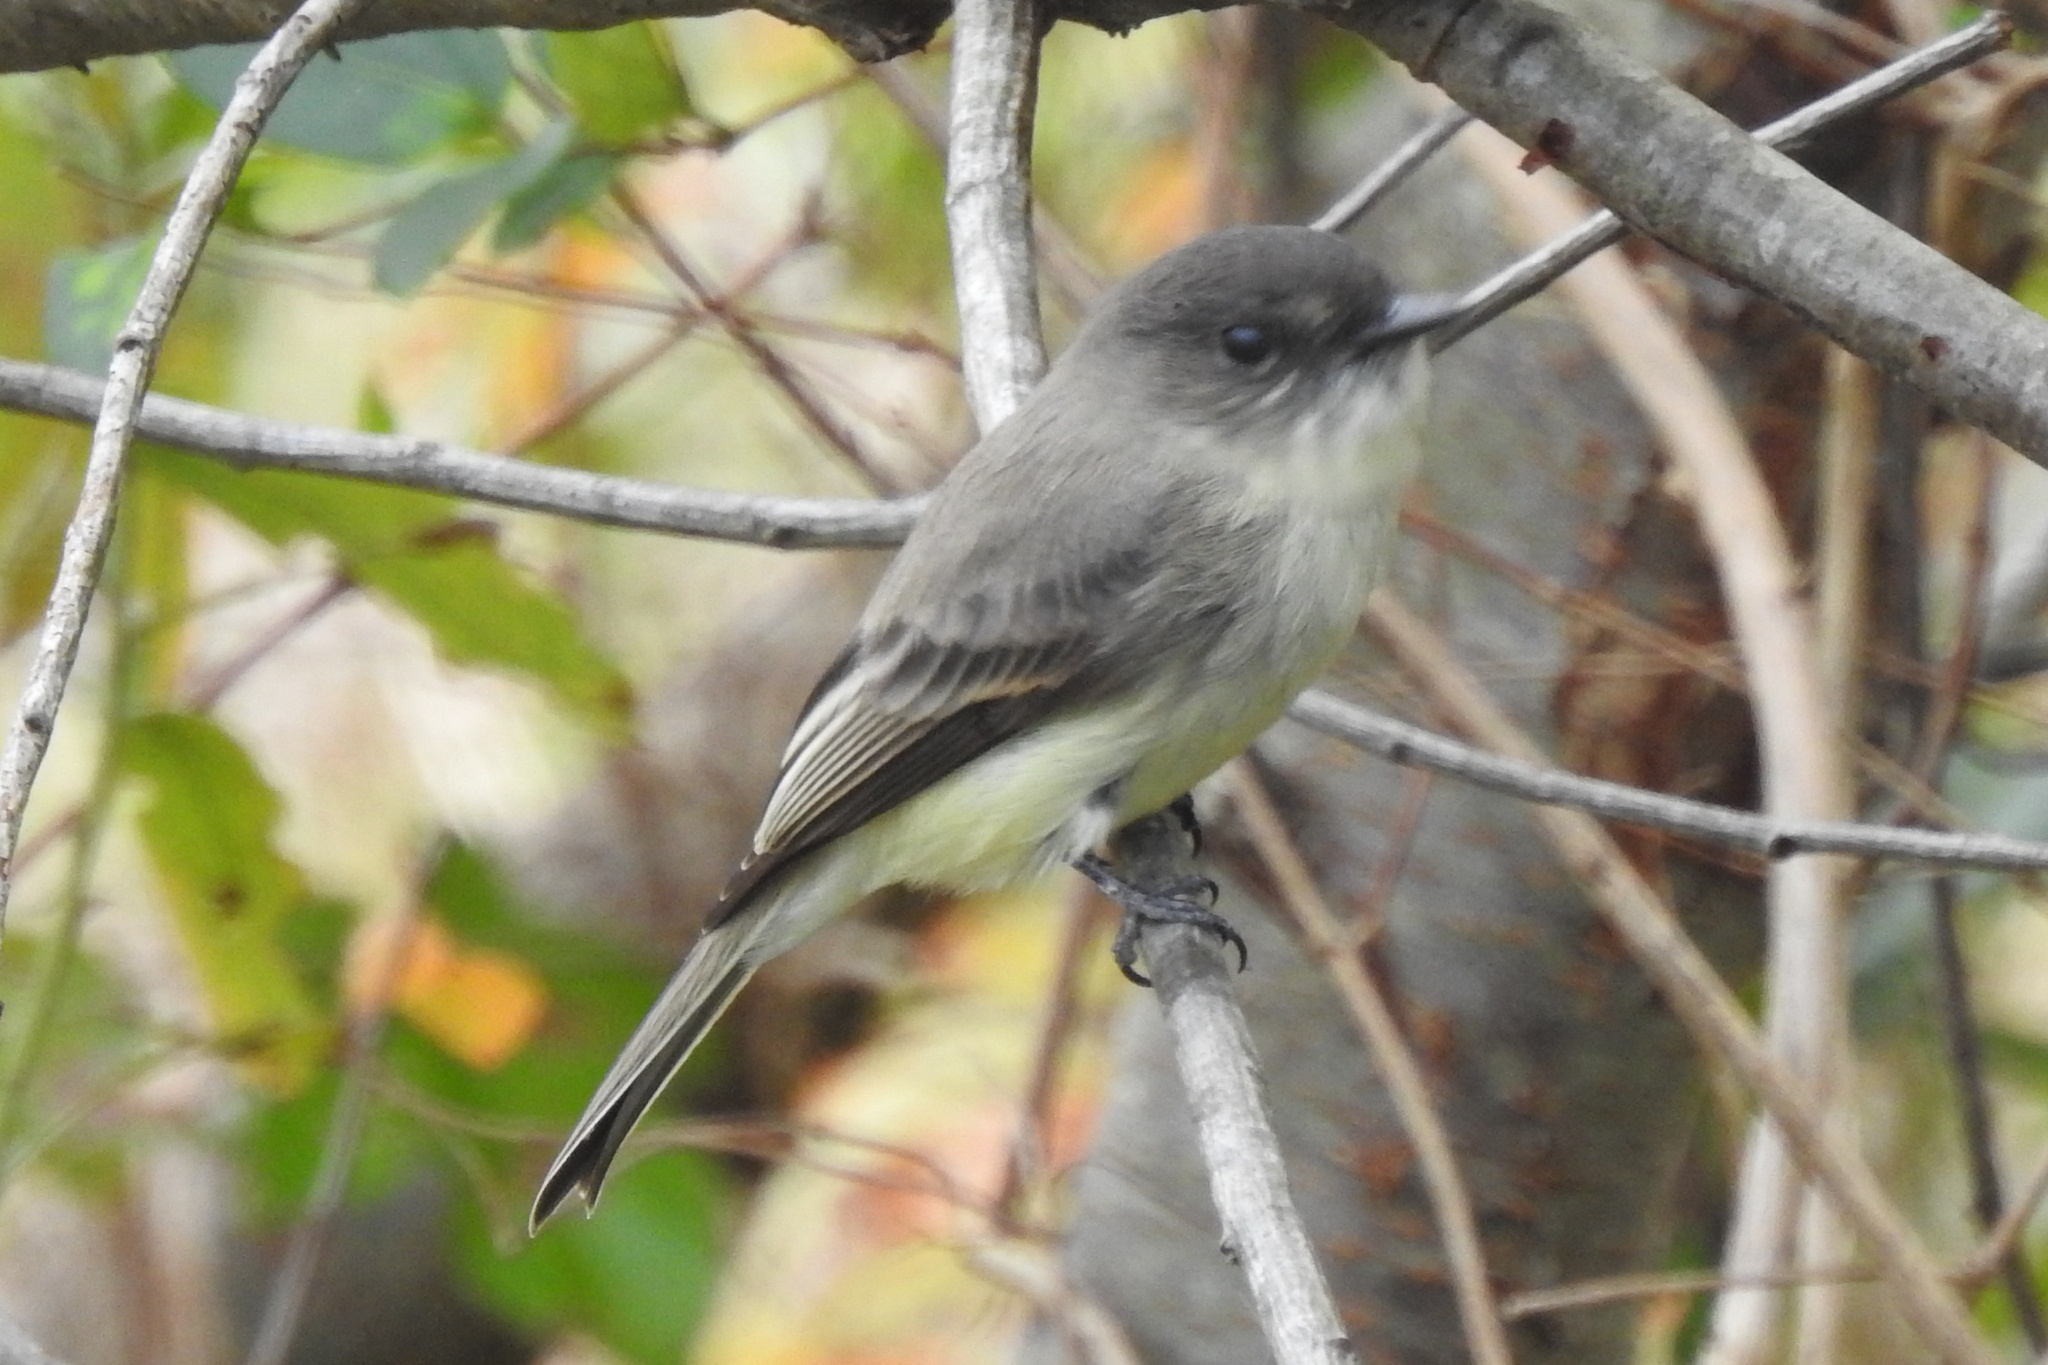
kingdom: Animalia
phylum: Chordata
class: Aves
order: Passeriformes
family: Tyrannidae
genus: Sayornis
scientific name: Sayornis phoebe
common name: Eastern phoebe
